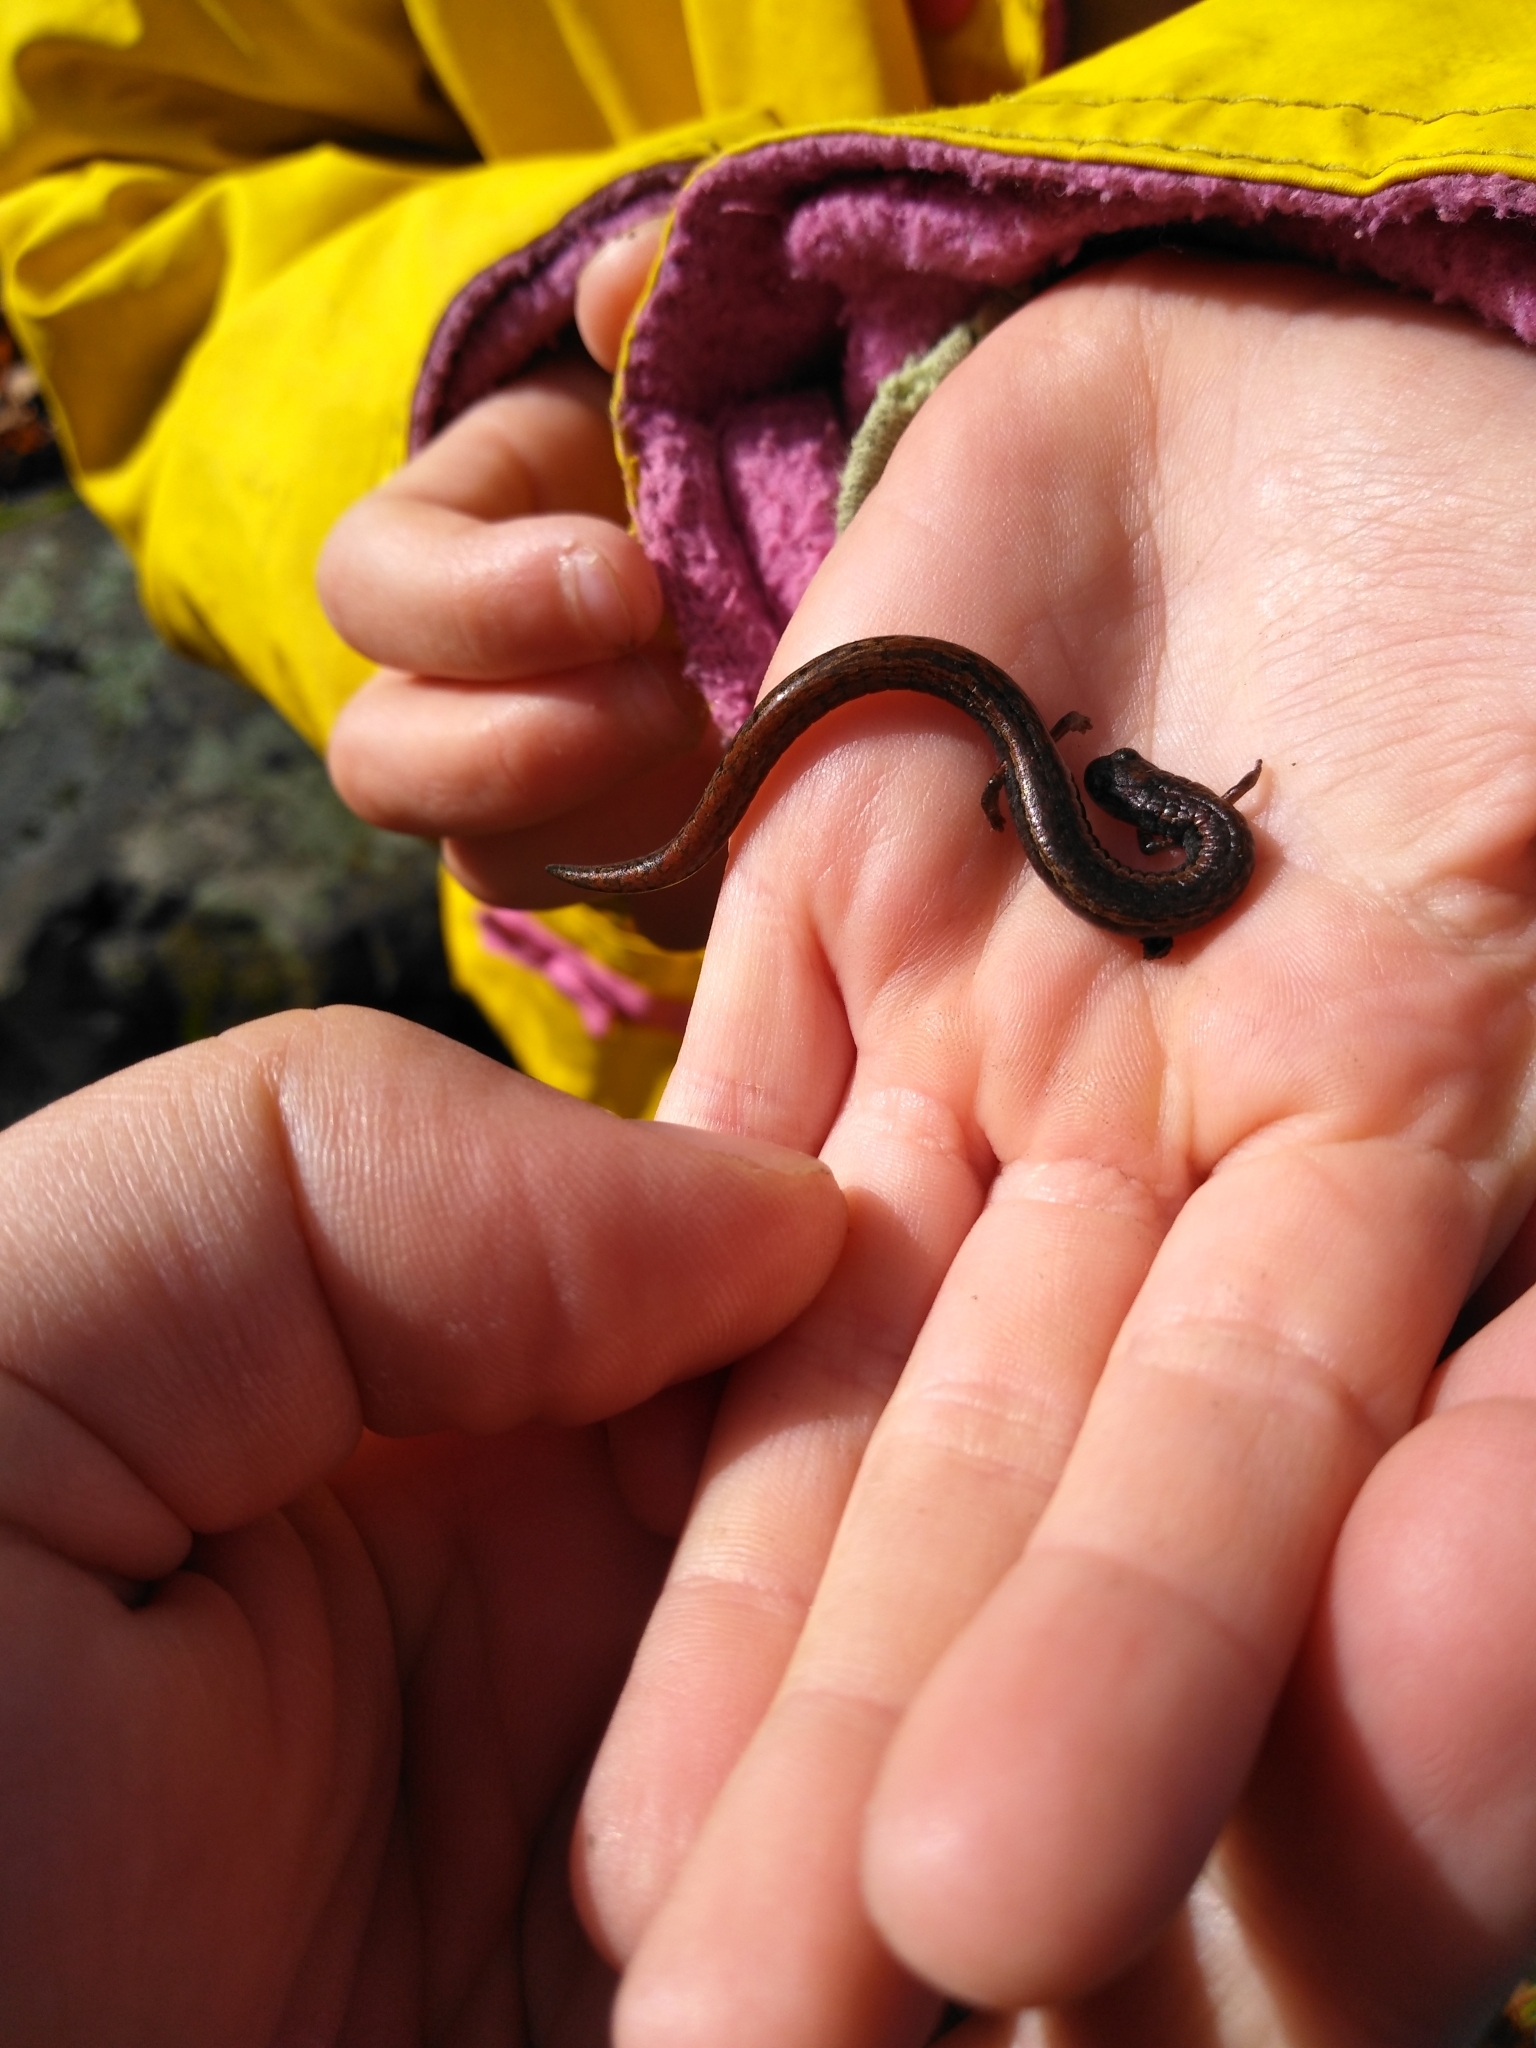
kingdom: Animalia
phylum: Chordata
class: Amphibia
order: Caudata
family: Plethodontidae
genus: Batrachoseps
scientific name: Batrachoseps attenuatus
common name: California slender salamander
